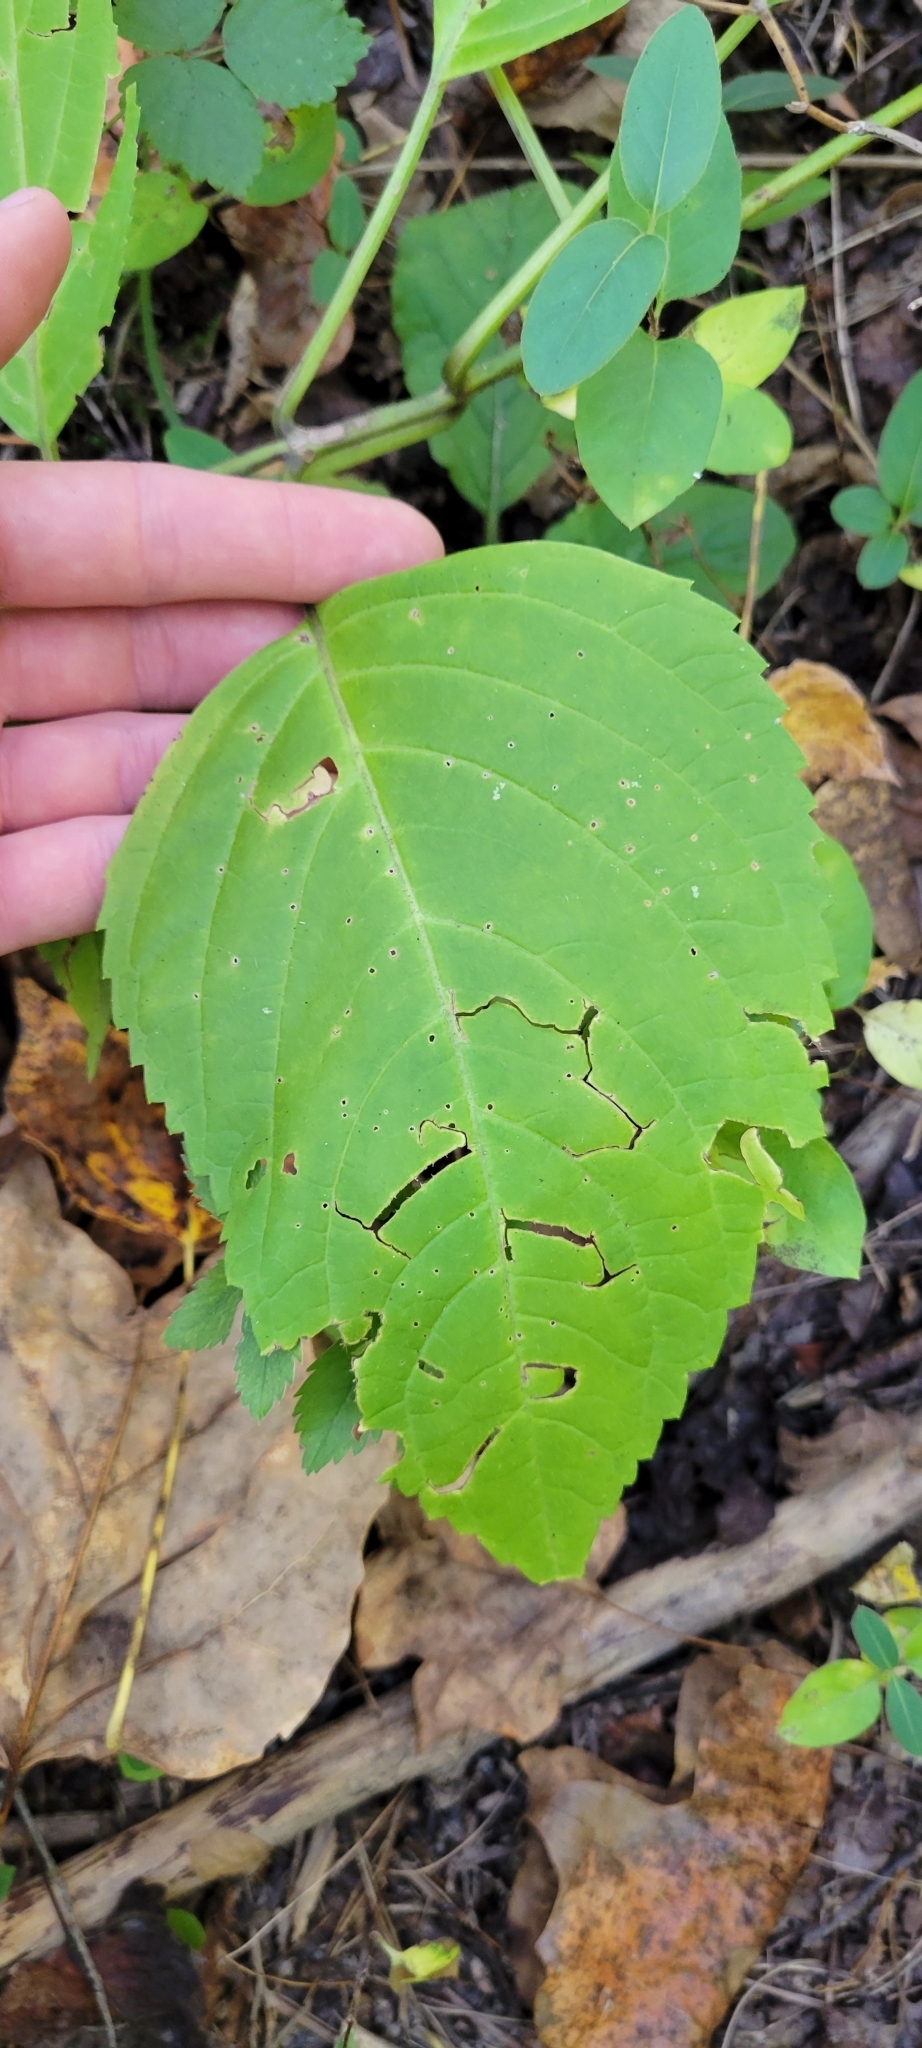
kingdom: Plantae
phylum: Tracheophyta
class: Magnoliopsida
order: Lamiales
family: Lamiaceae
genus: Collinsonia
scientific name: Collinsonia canadensis
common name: Northern horsebalm
